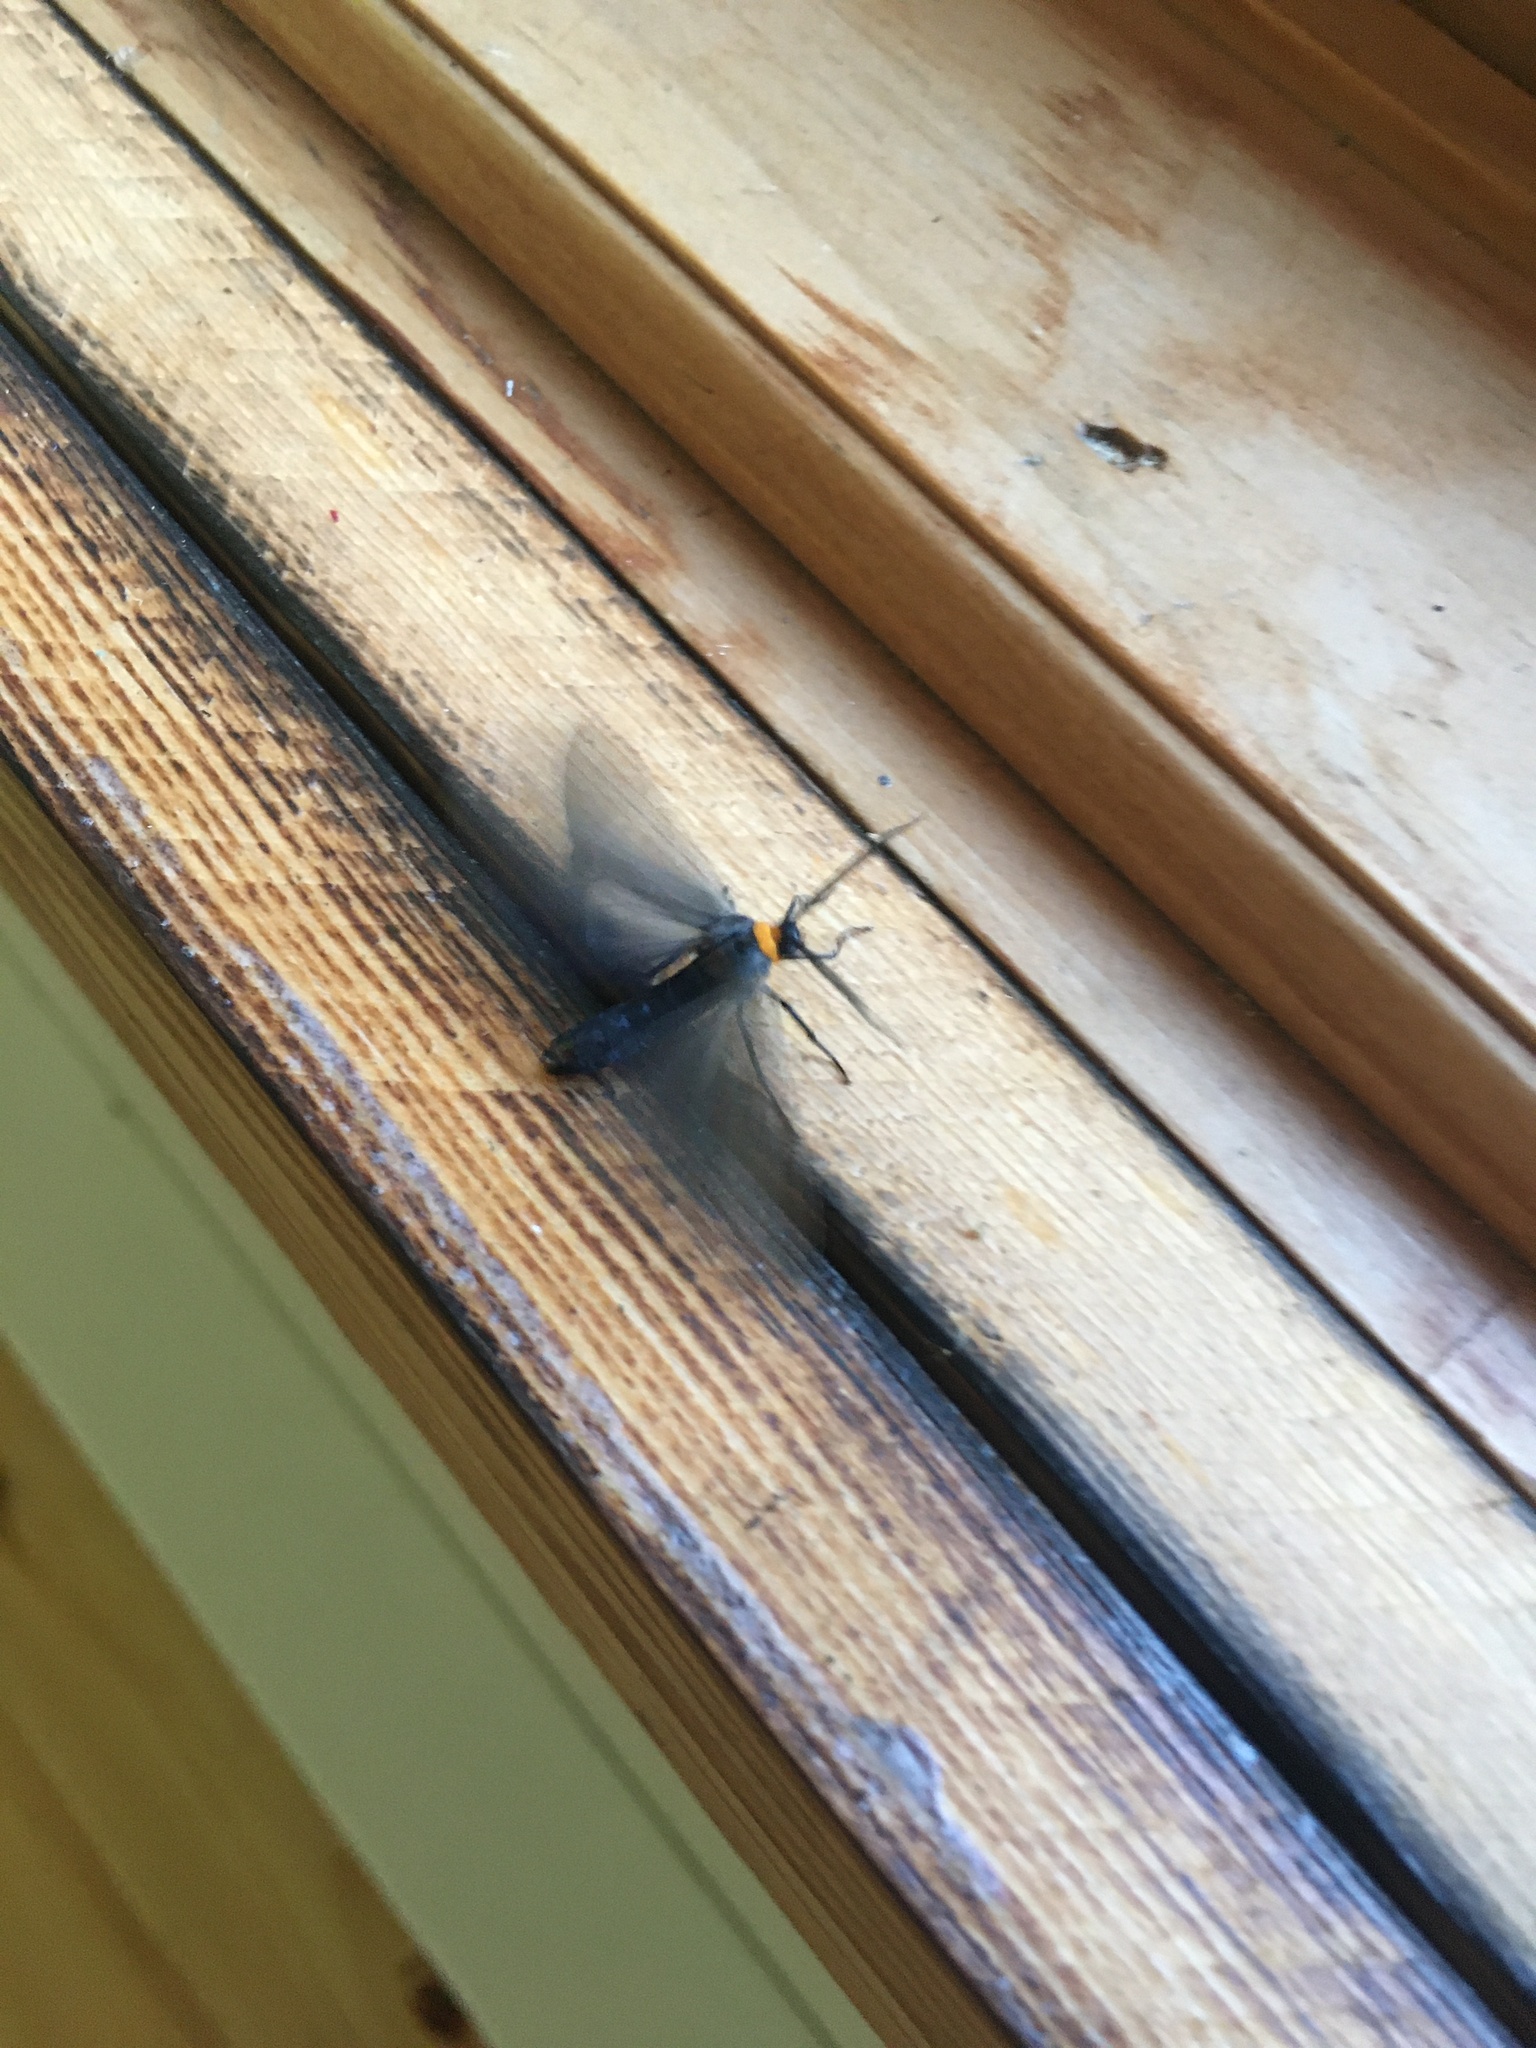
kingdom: Animalia
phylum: Arthropoda
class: Insecta
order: Lepidoptera
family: Erebidae
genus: Cisseps
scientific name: Cisseps fulvicollis
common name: Yellow-collared scape moth
